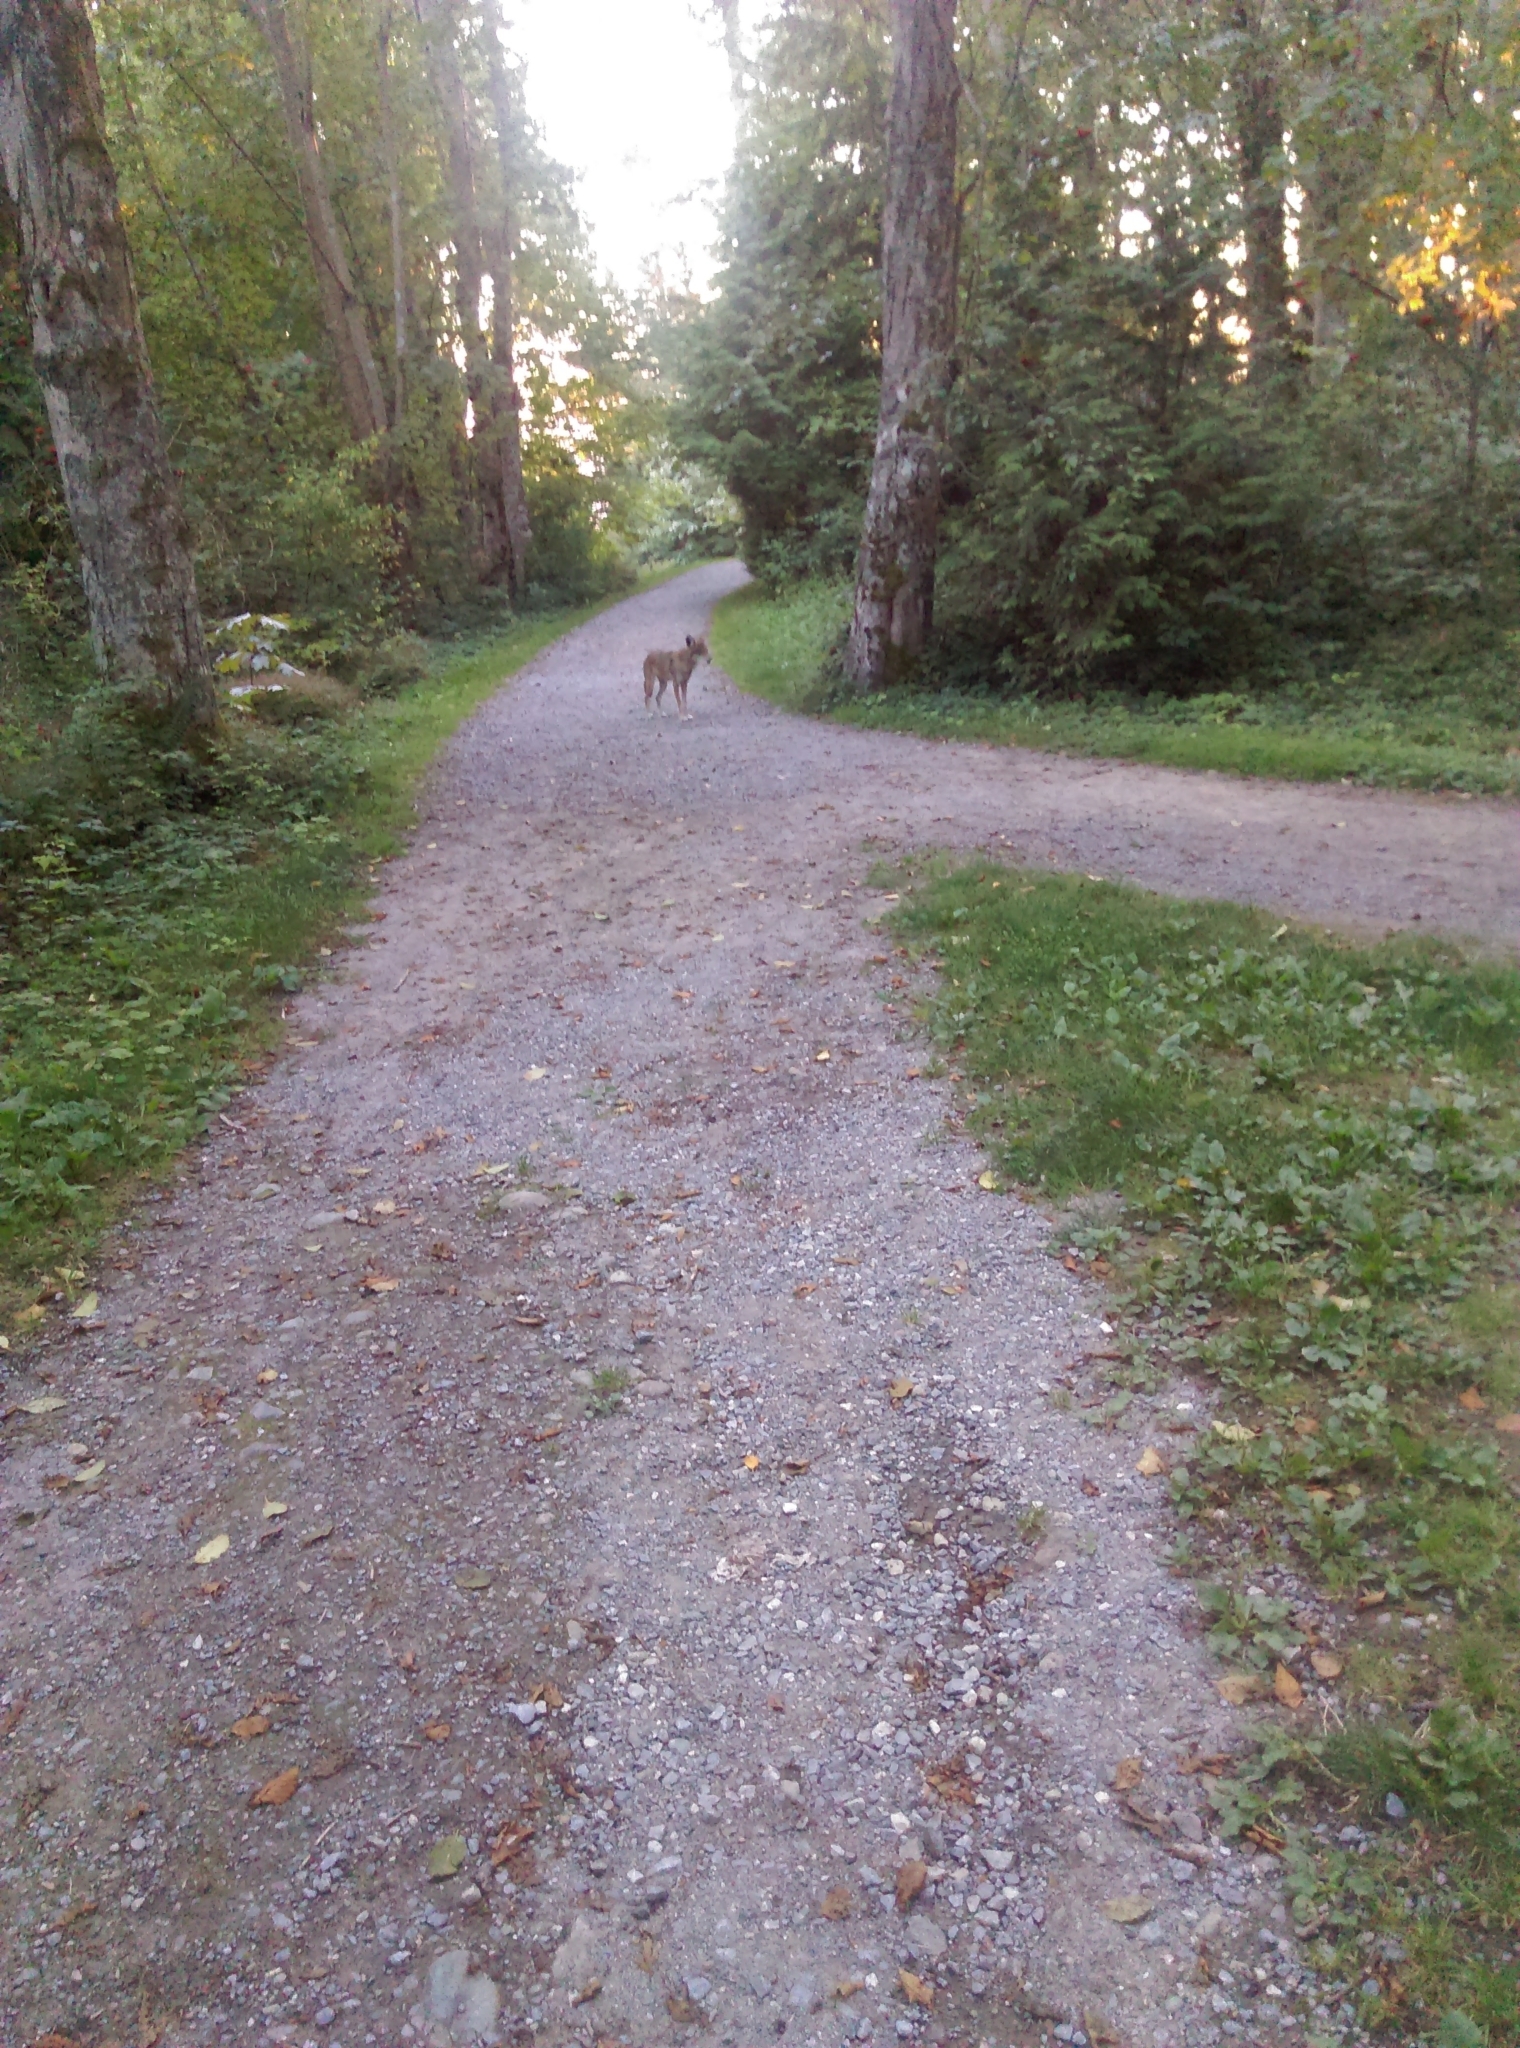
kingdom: Animalia
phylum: Chordata
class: Mammalia
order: Carnivora
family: Canidae
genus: Canis
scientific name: Canis latrans
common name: Coyote
